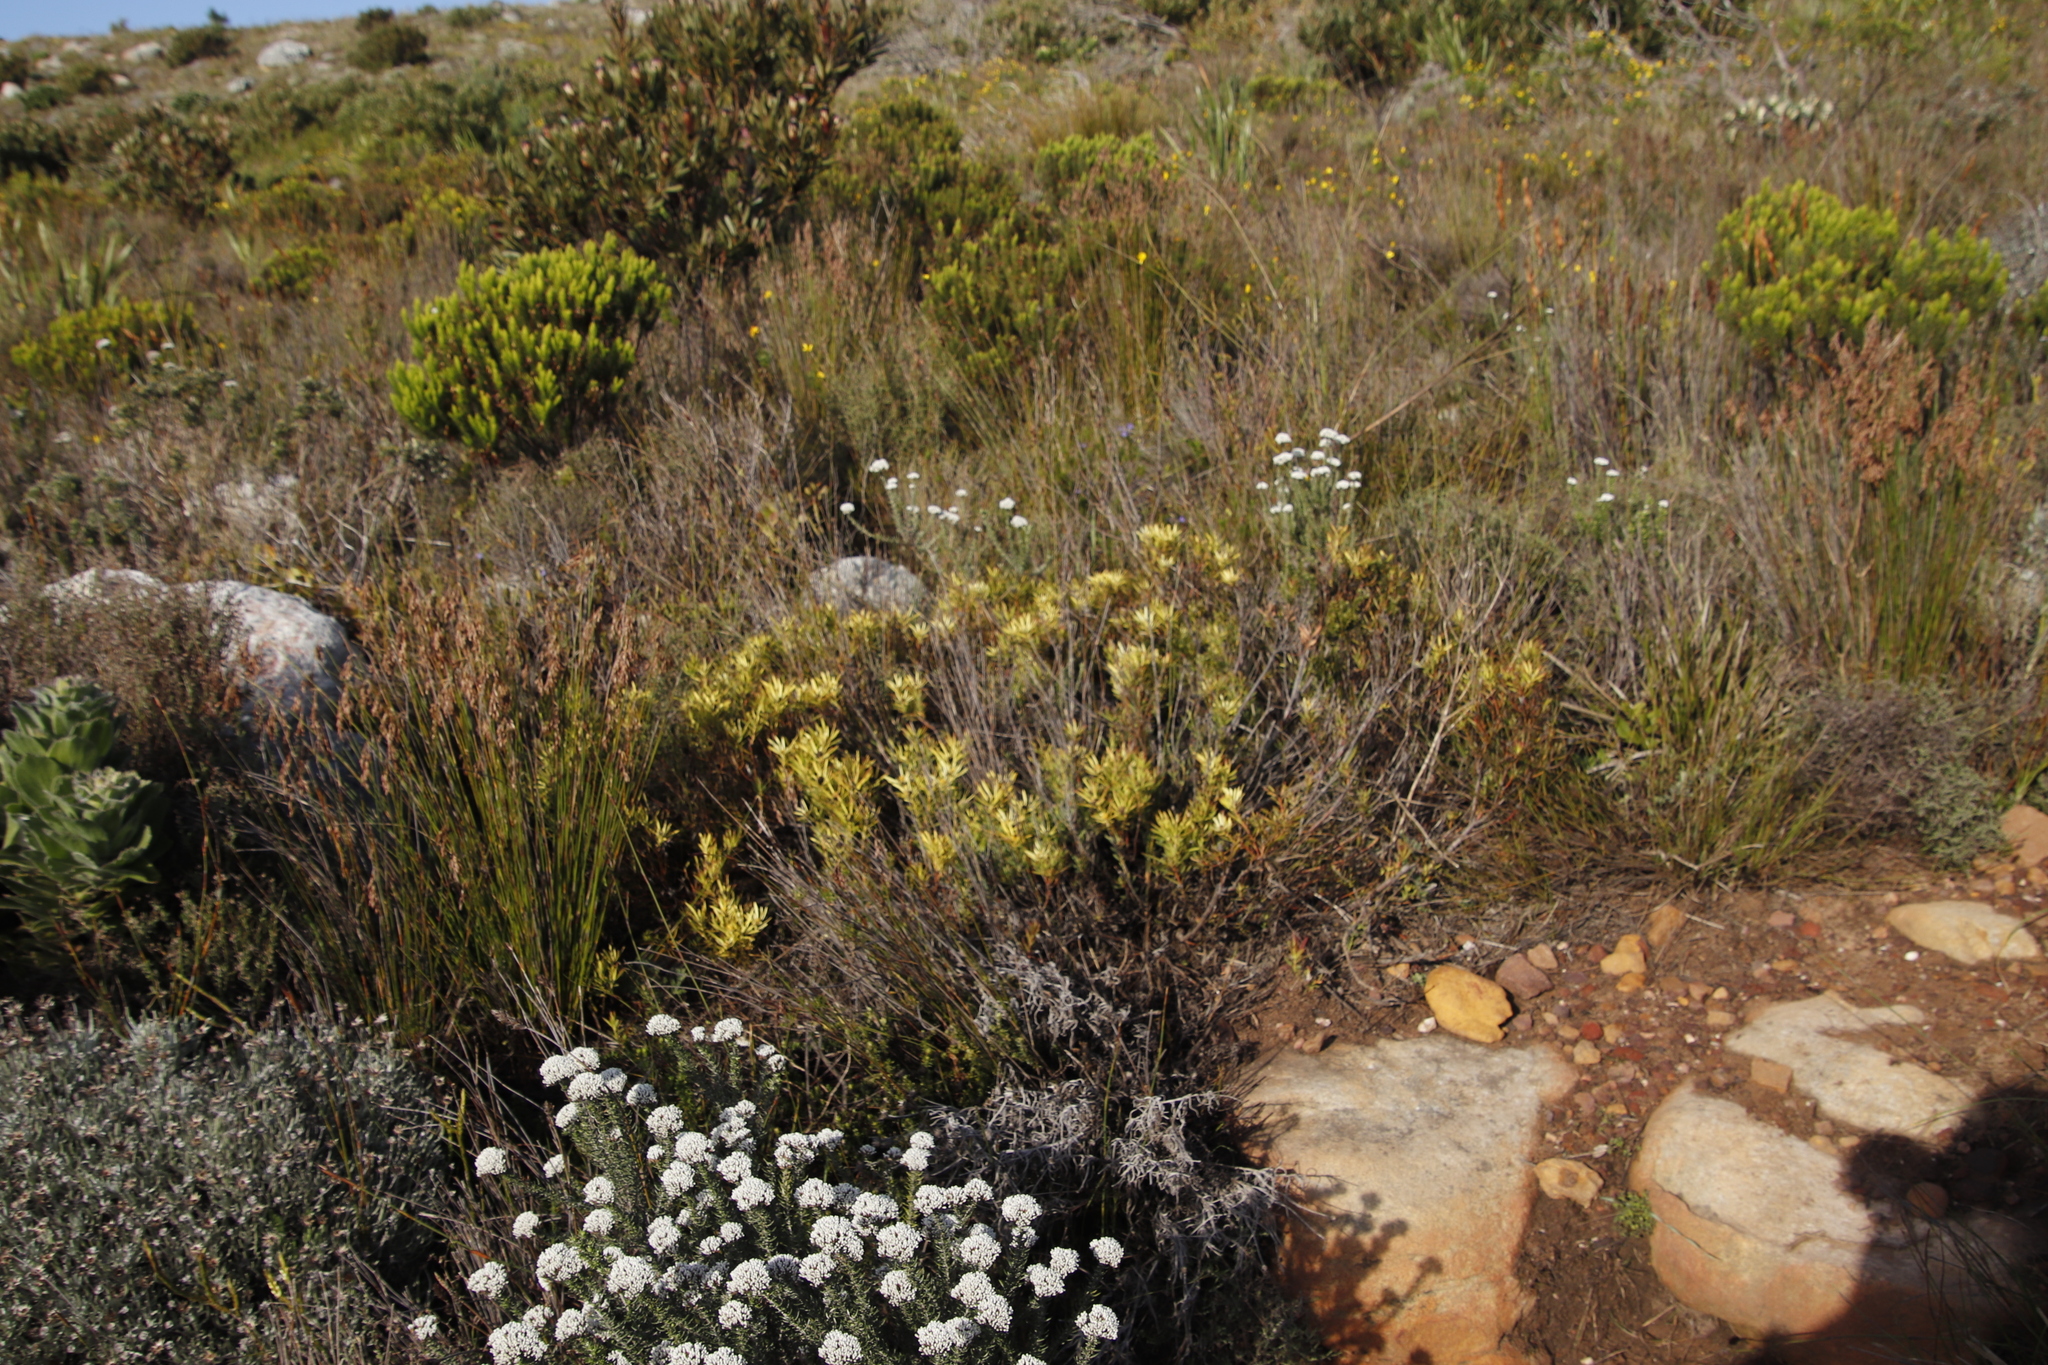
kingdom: Plantae
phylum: Tracheophyta
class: Magnoliopsida
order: Proteales
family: Proteaceae
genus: Leucadendron
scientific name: Leucadendron salignum
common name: Common sunshine conebush
